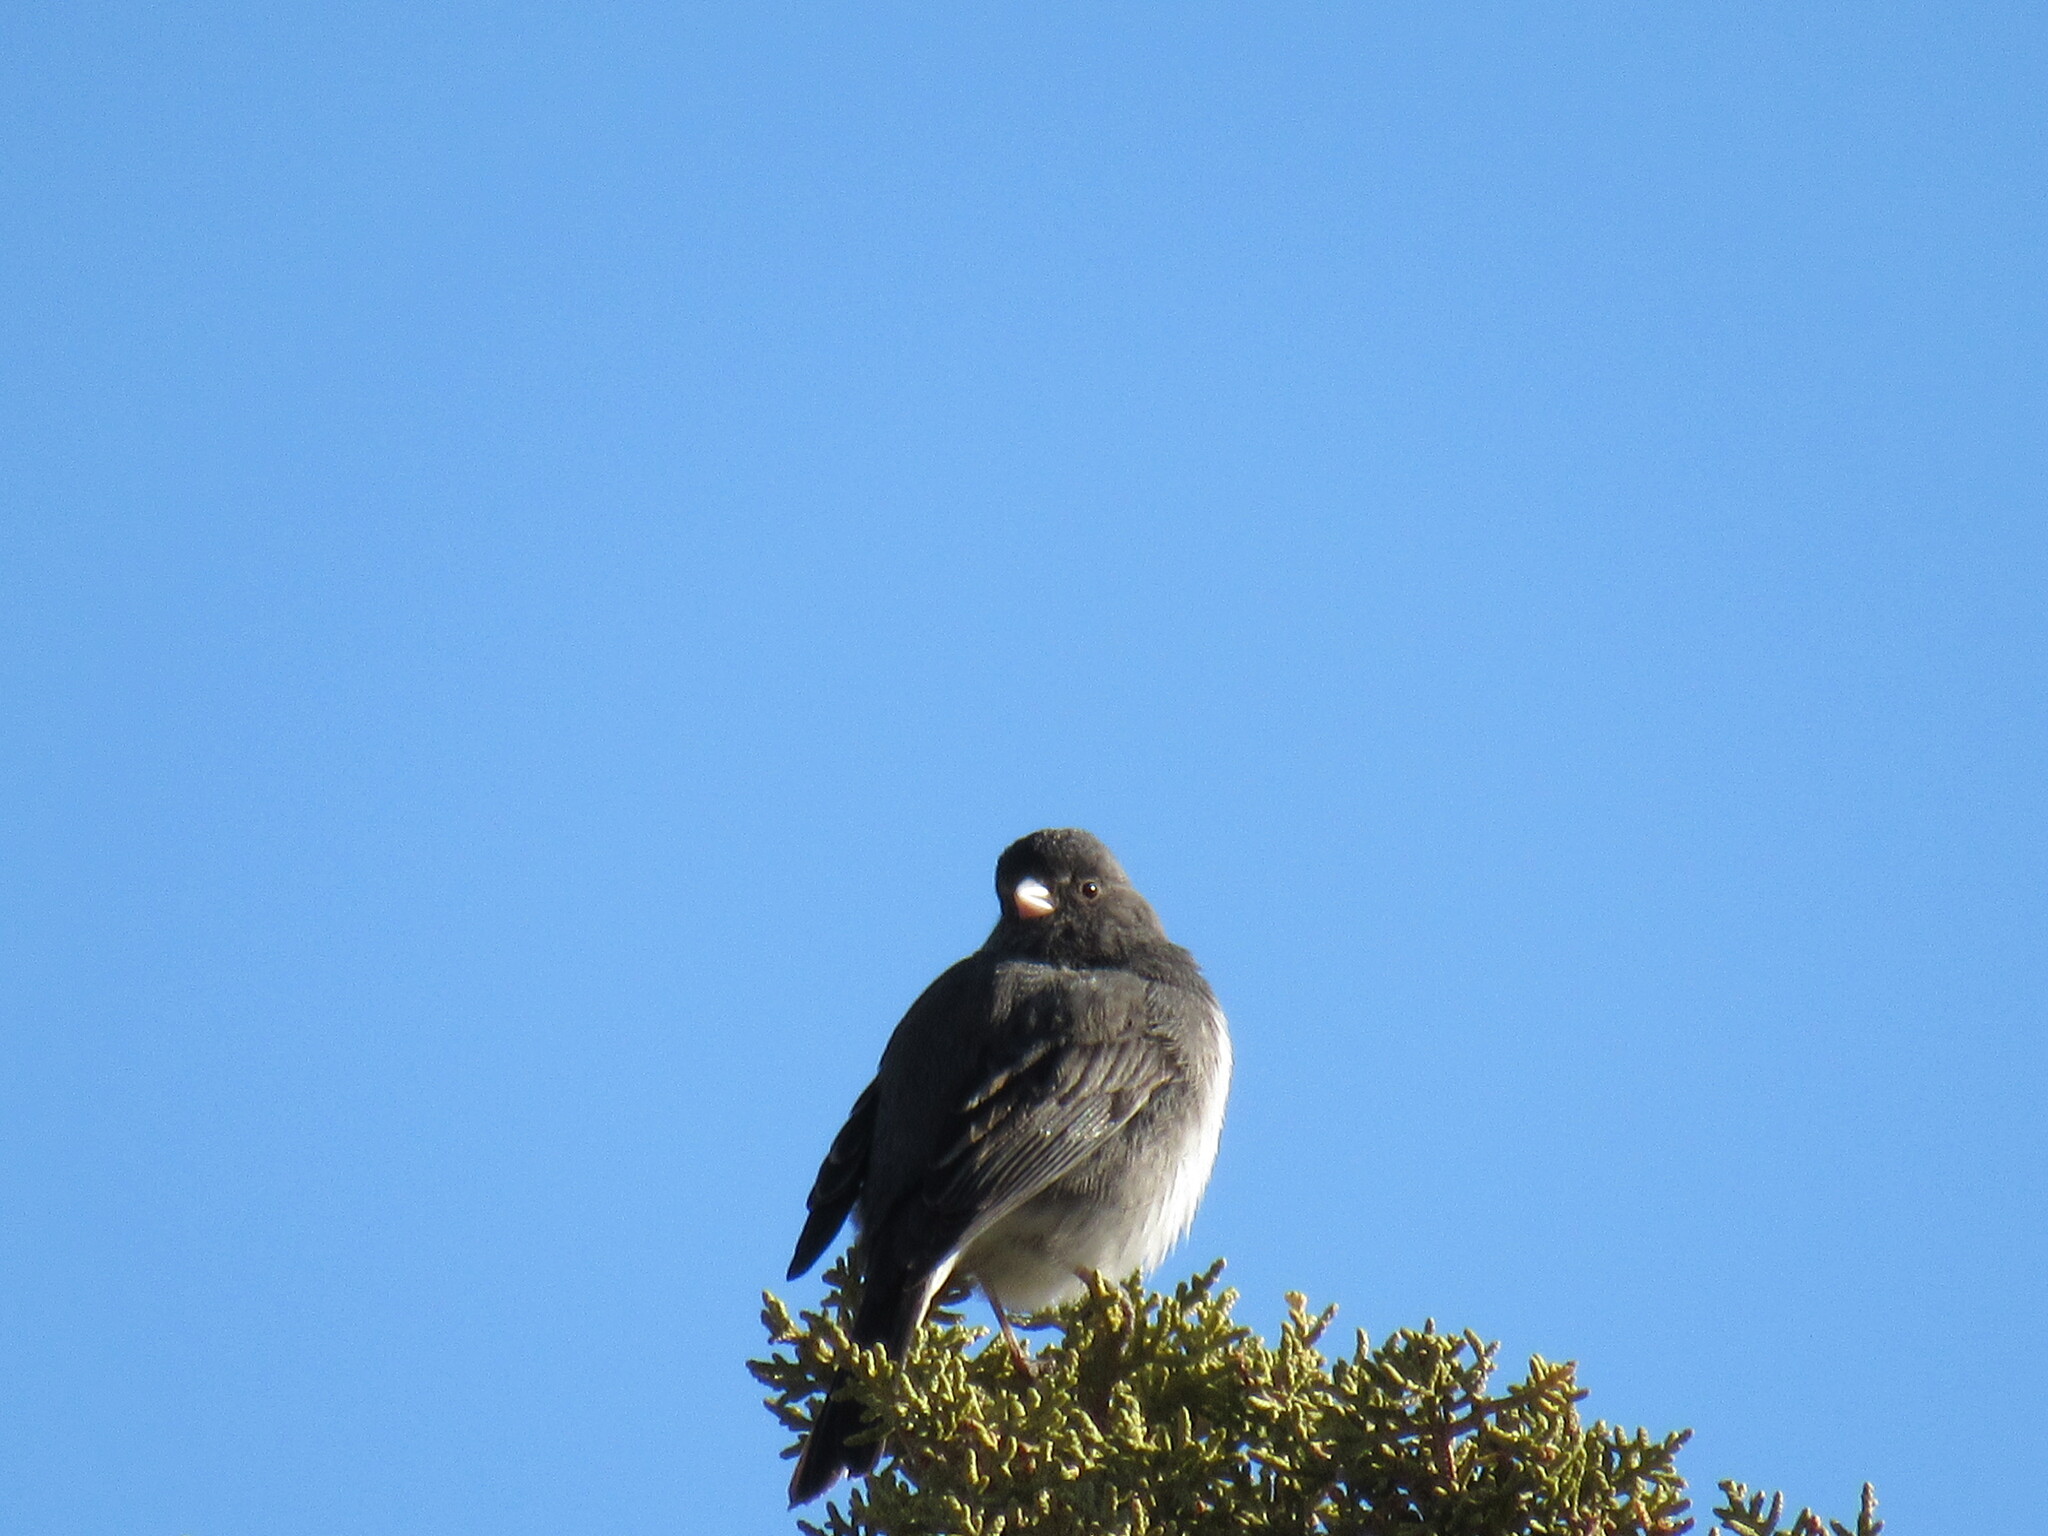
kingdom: Animalia
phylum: Chordata
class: Aves
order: Passeriformes
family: Passerellidae
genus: Junco
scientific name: Junco hyemalis
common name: Dark-eyed junco
